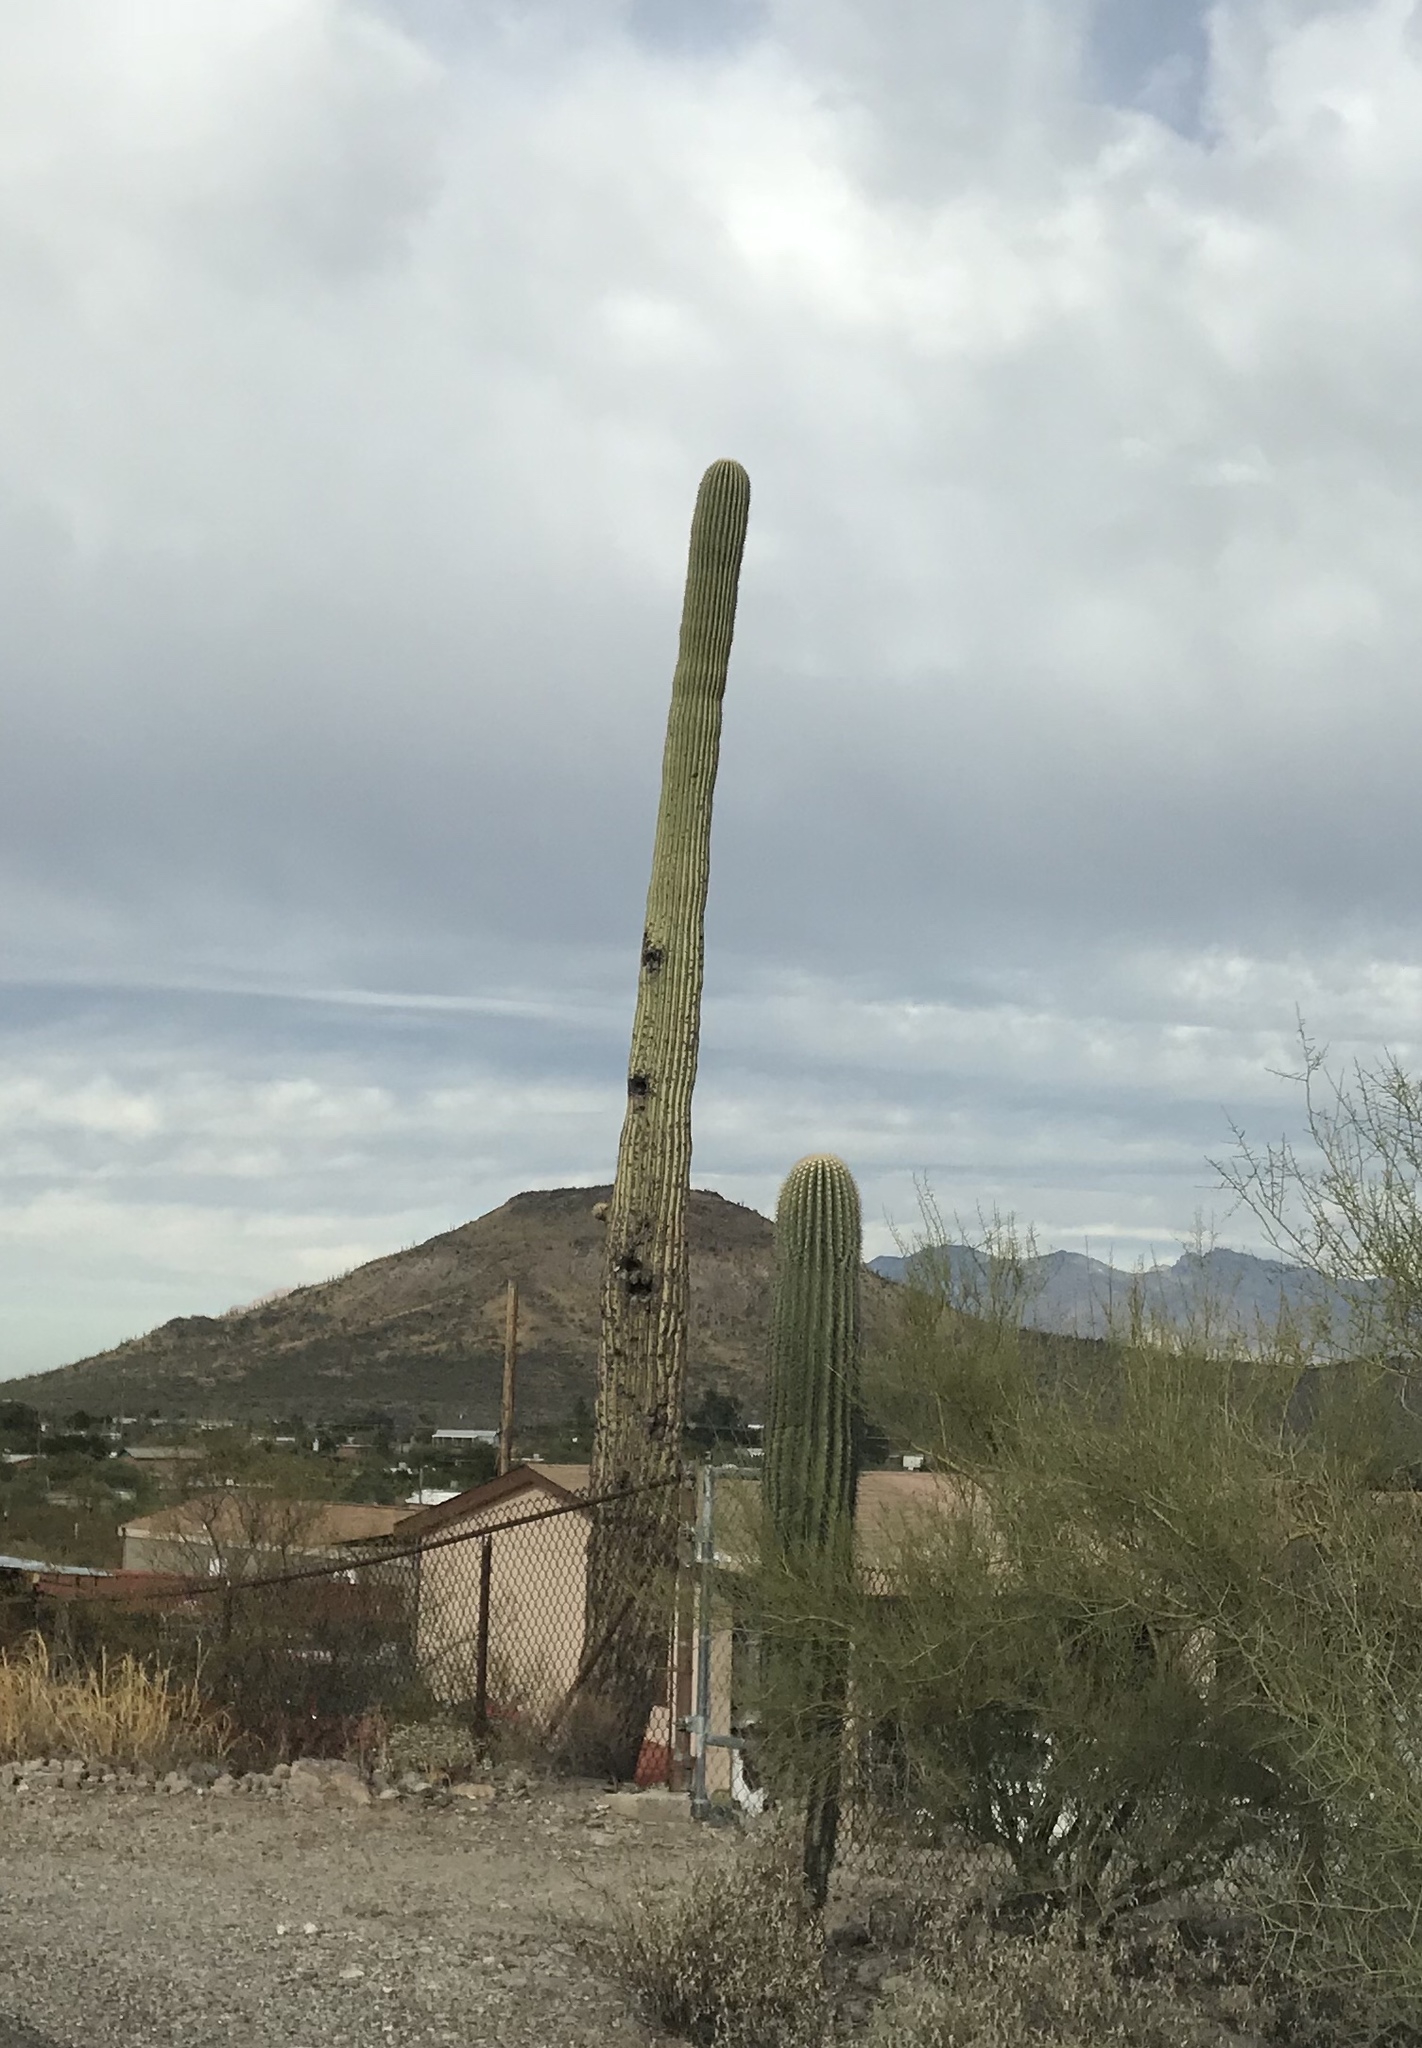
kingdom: Plantae
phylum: Tracheophyta
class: Magnoliopsida
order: Caryophyllales
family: Cactaceae
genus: Carnegiea
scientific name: Carnegiea gigantea
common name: Saguaro
